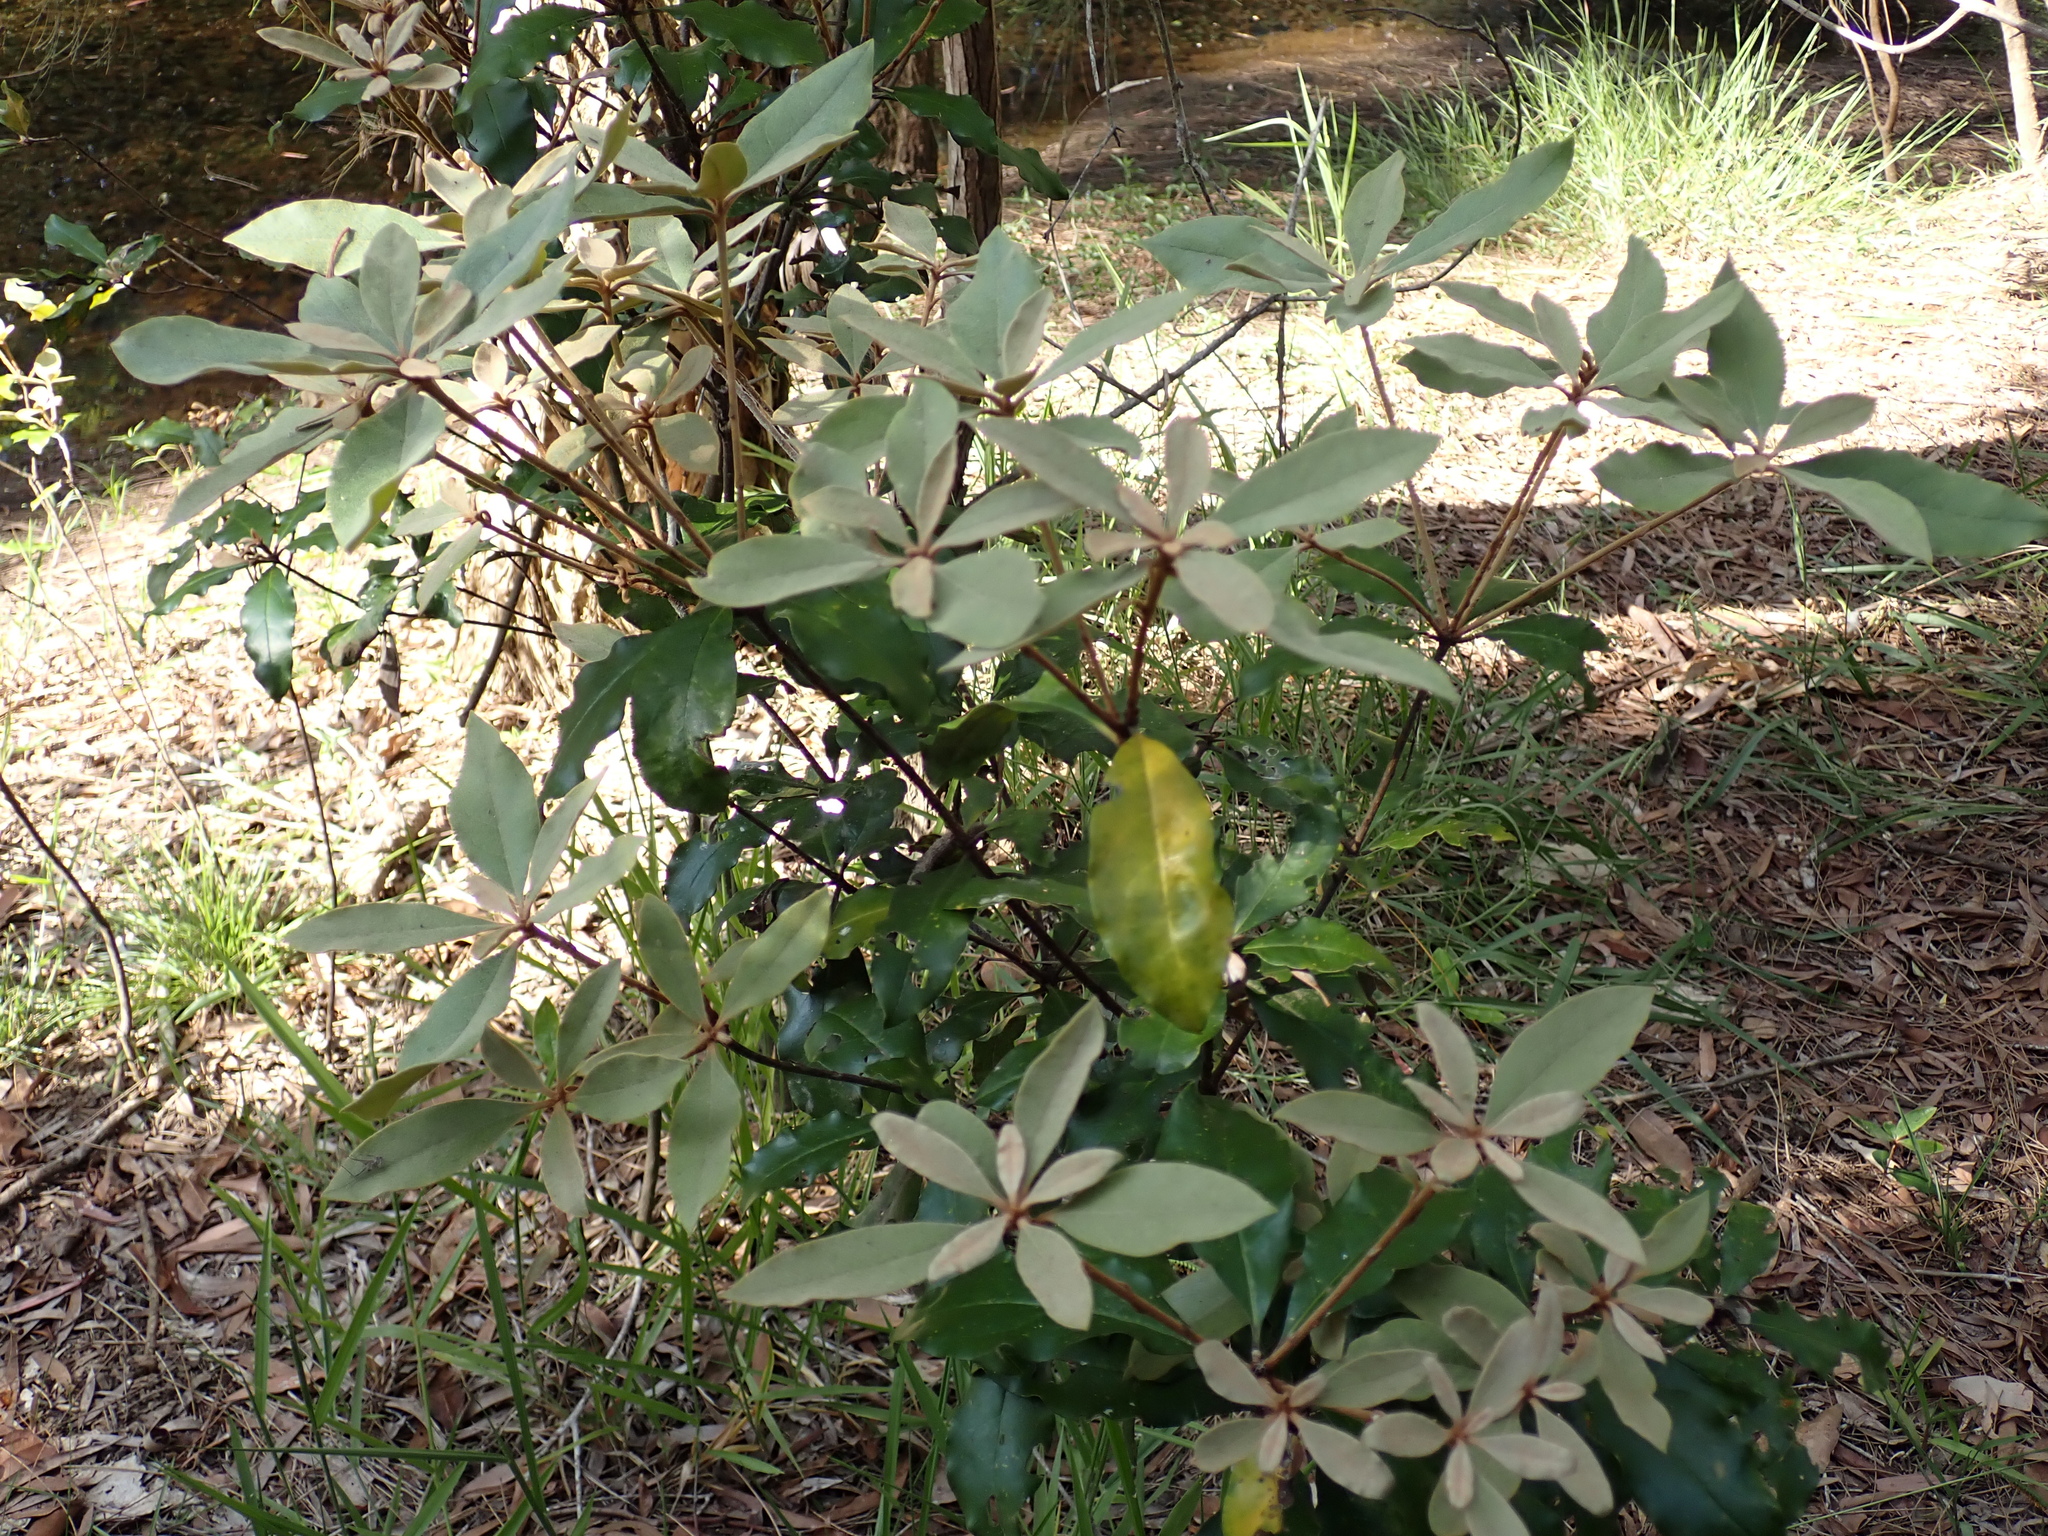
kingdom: Plantae
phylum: Tracheophyta
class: Magnoliopsida
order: Apiales
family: Pittosporaceae
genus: Pittosporum
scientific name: Pittosporum revolutum
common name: Brisbane-laurel
